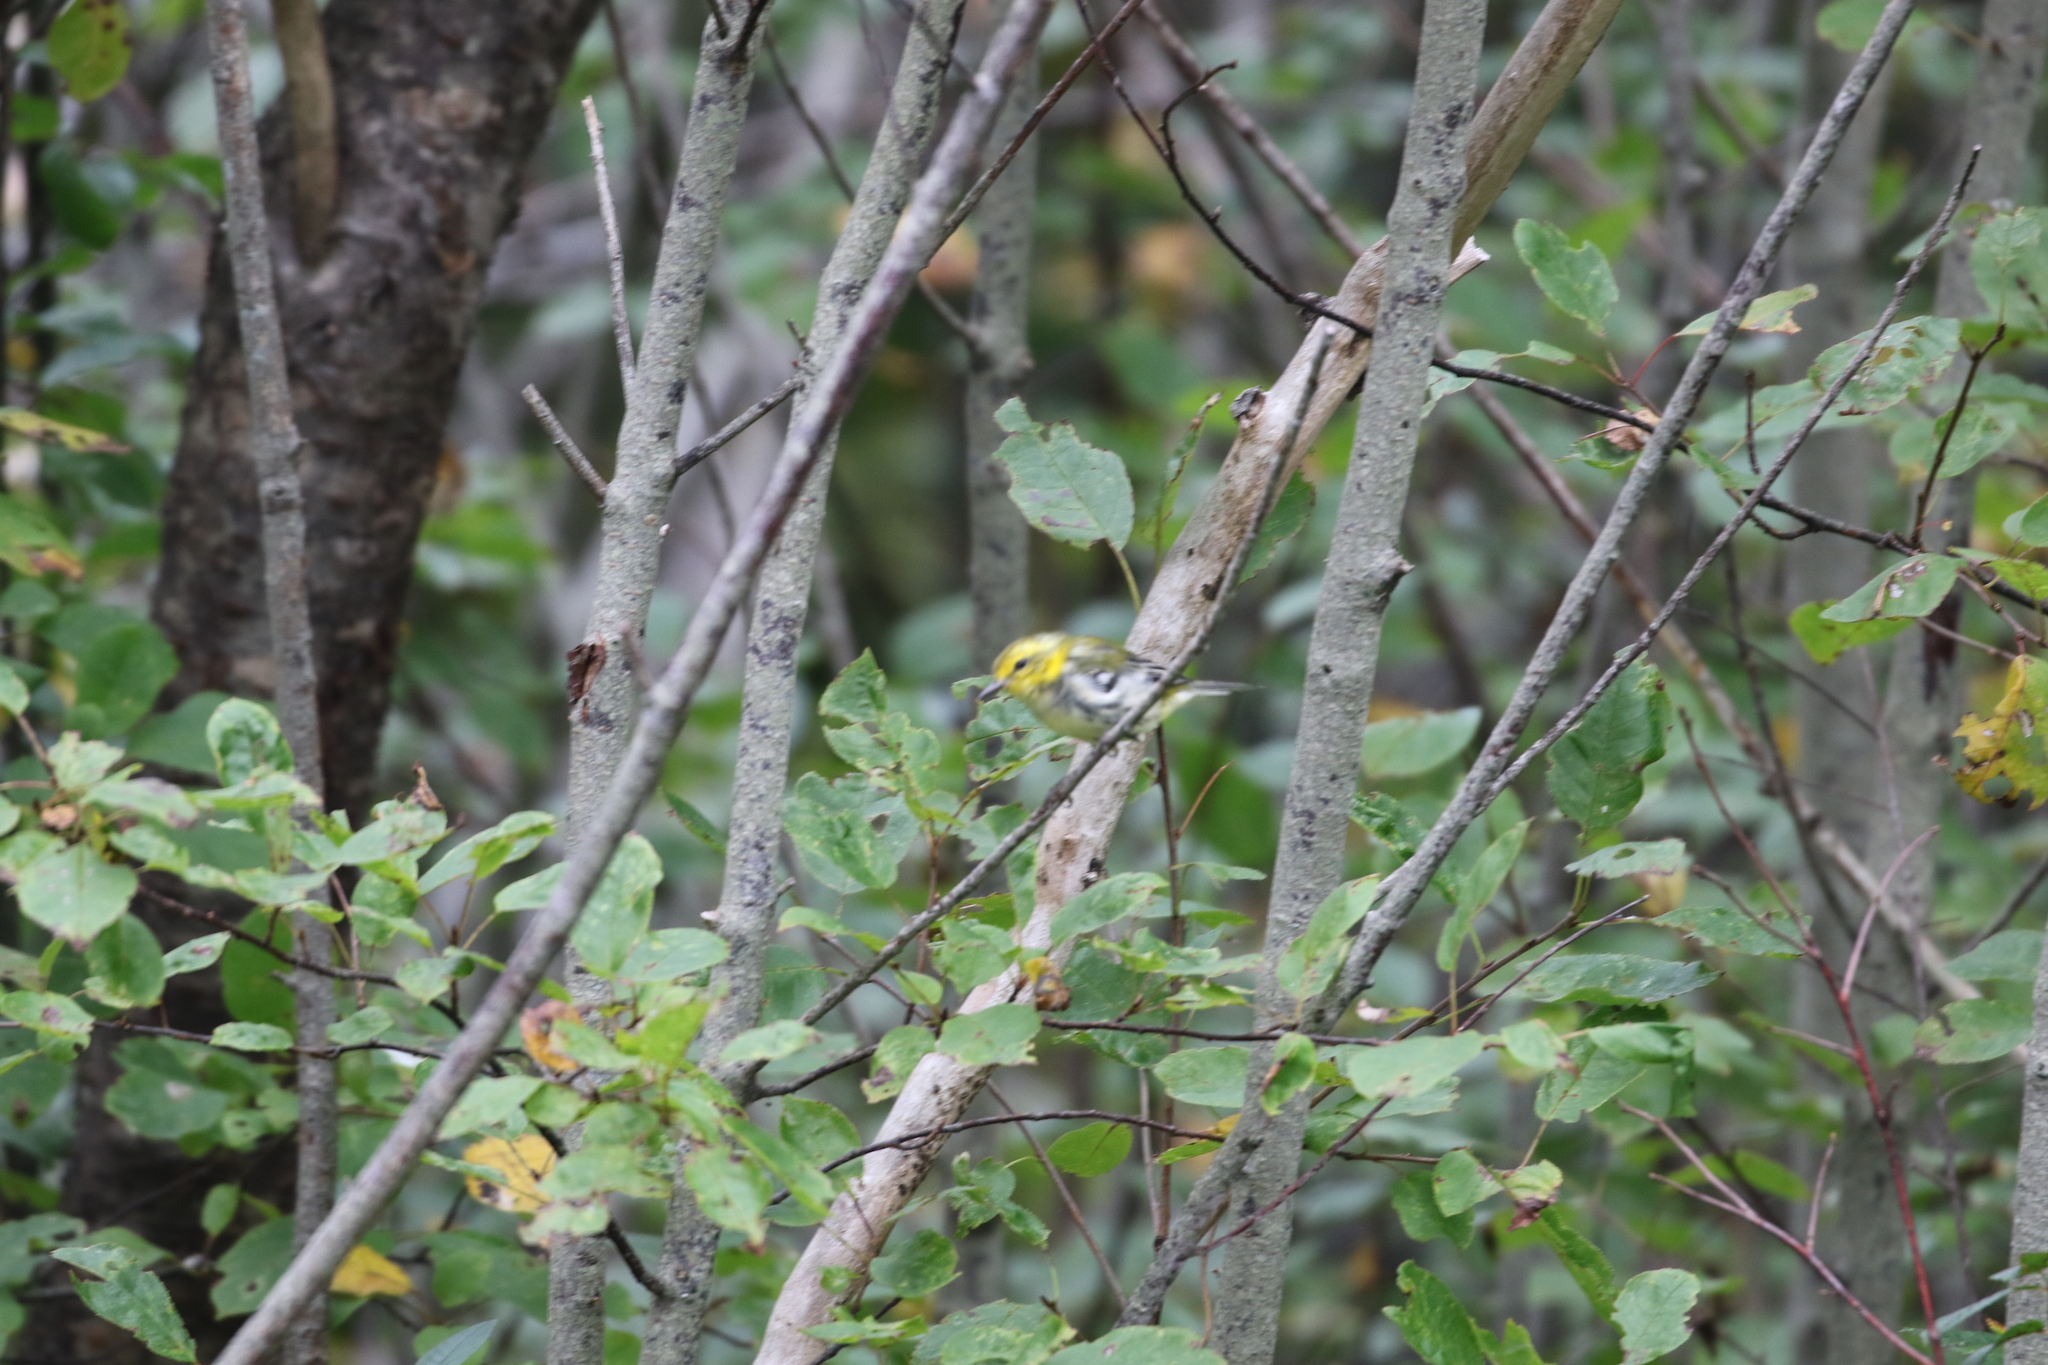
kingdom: Animalia
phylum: Chordata
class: Aves
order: Passeriformes
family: Parulidae
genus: Setophaga
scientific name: Setophaga virens
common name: Black-throated green warbler
